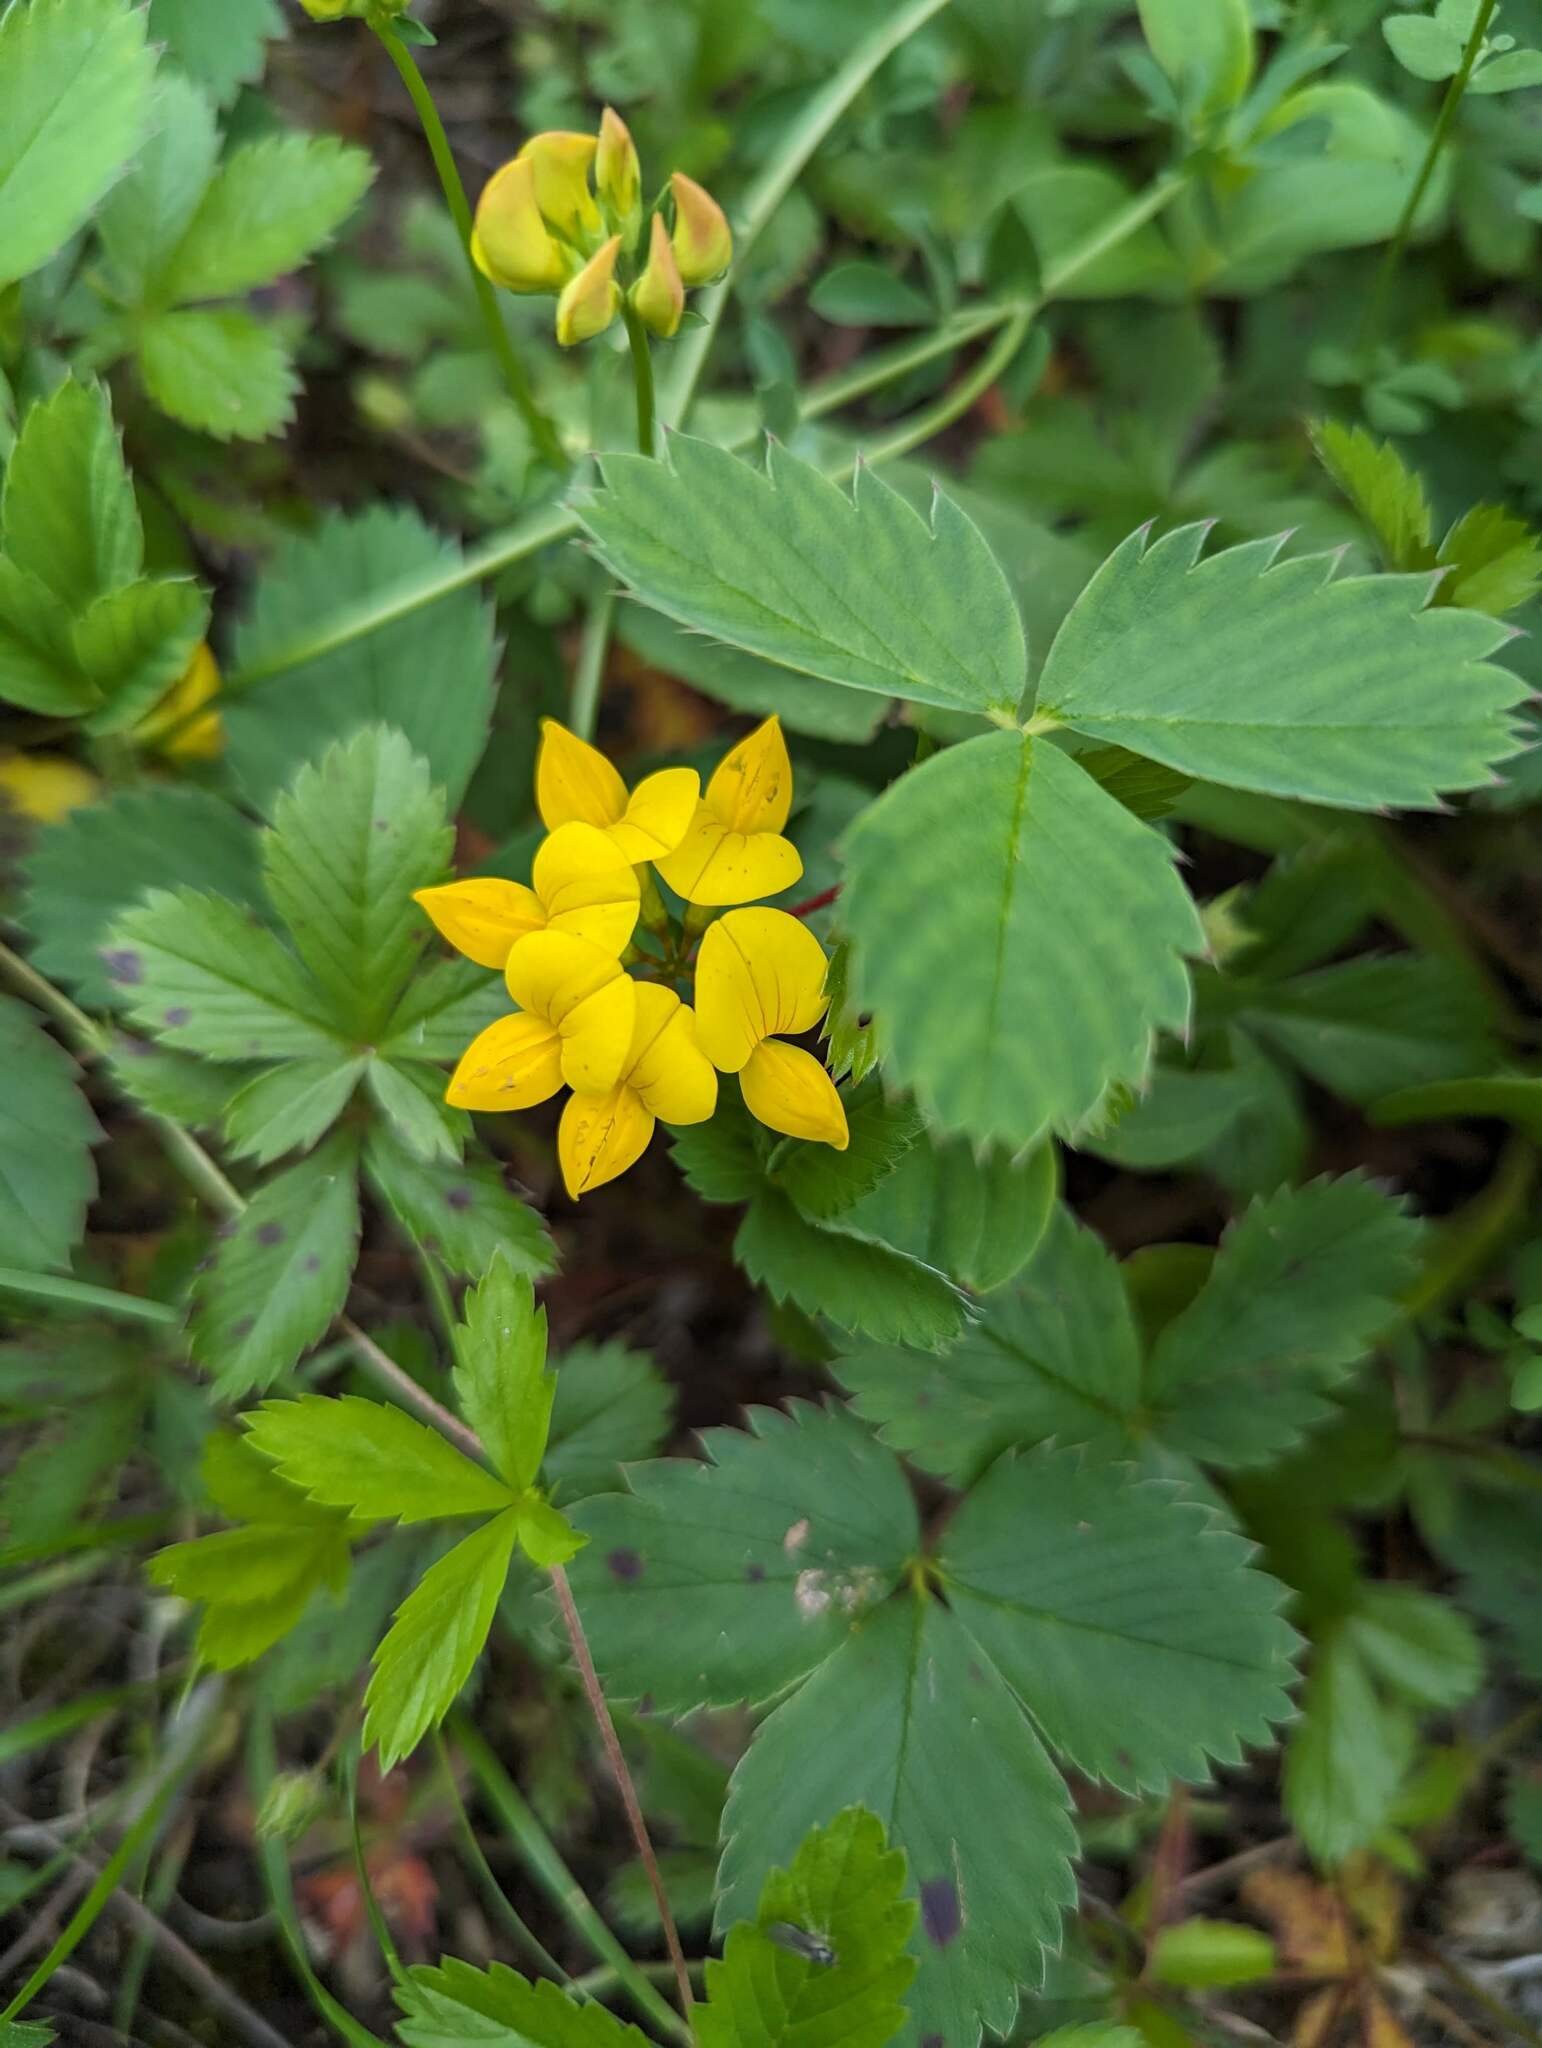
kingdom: Plantae
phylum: Tracheophyta
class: Magnoliopsida
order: Fabales
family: Fabaceae
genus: Lotus
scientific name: Lotus corniculatus
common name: Common bird's-foot-trefoil
